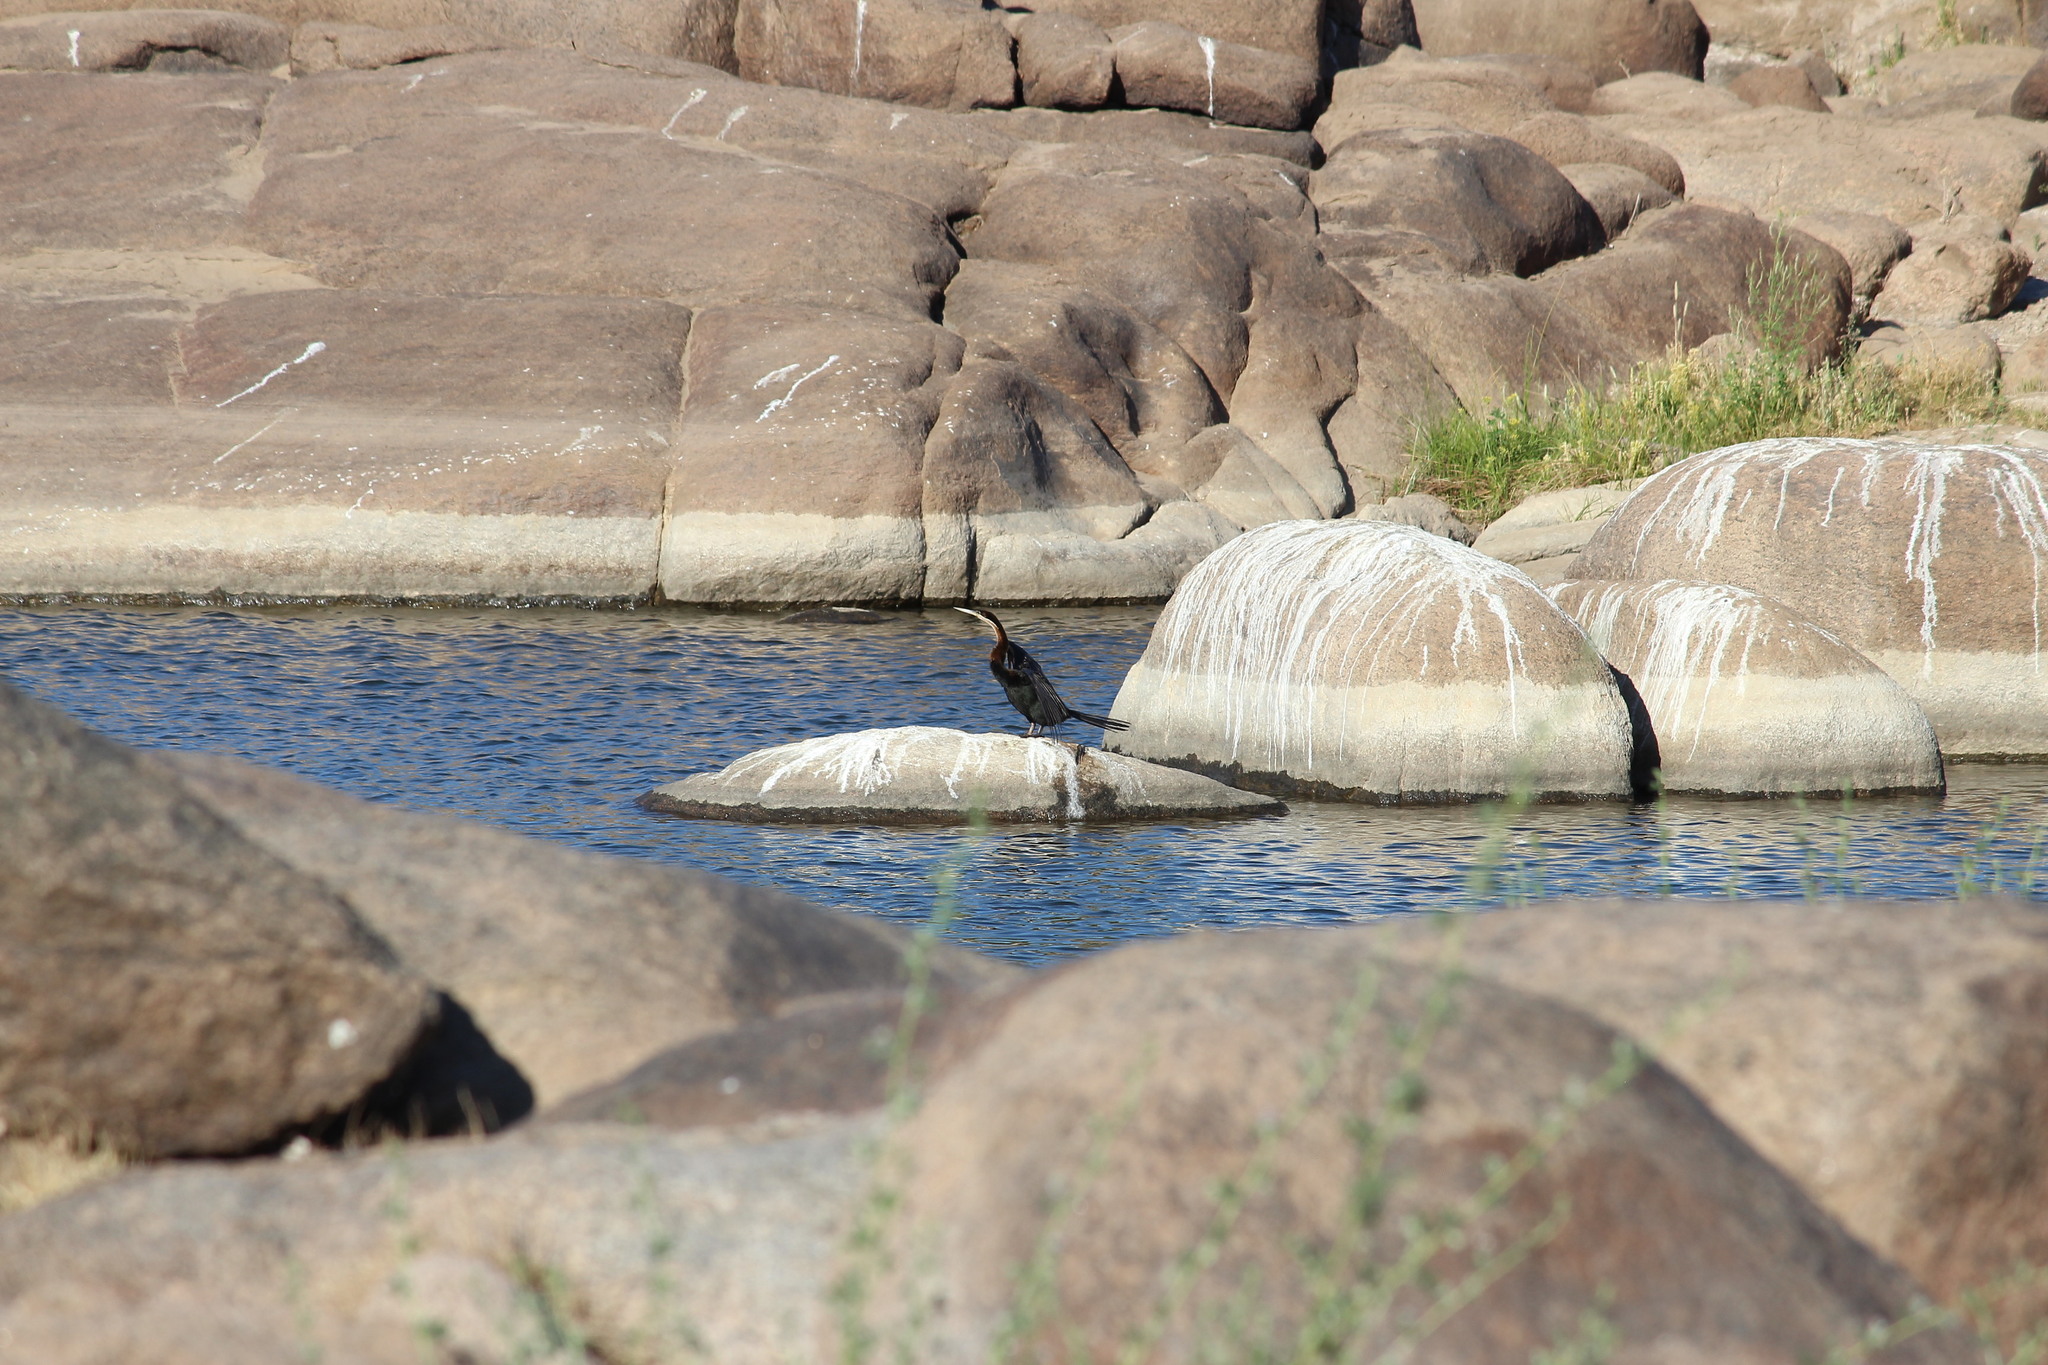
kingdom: Animalia
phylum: Chordata
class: Aves
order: Suliformes
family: Anhingidae
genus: Anhinga
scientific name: Anhinga rufa
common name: African darter
